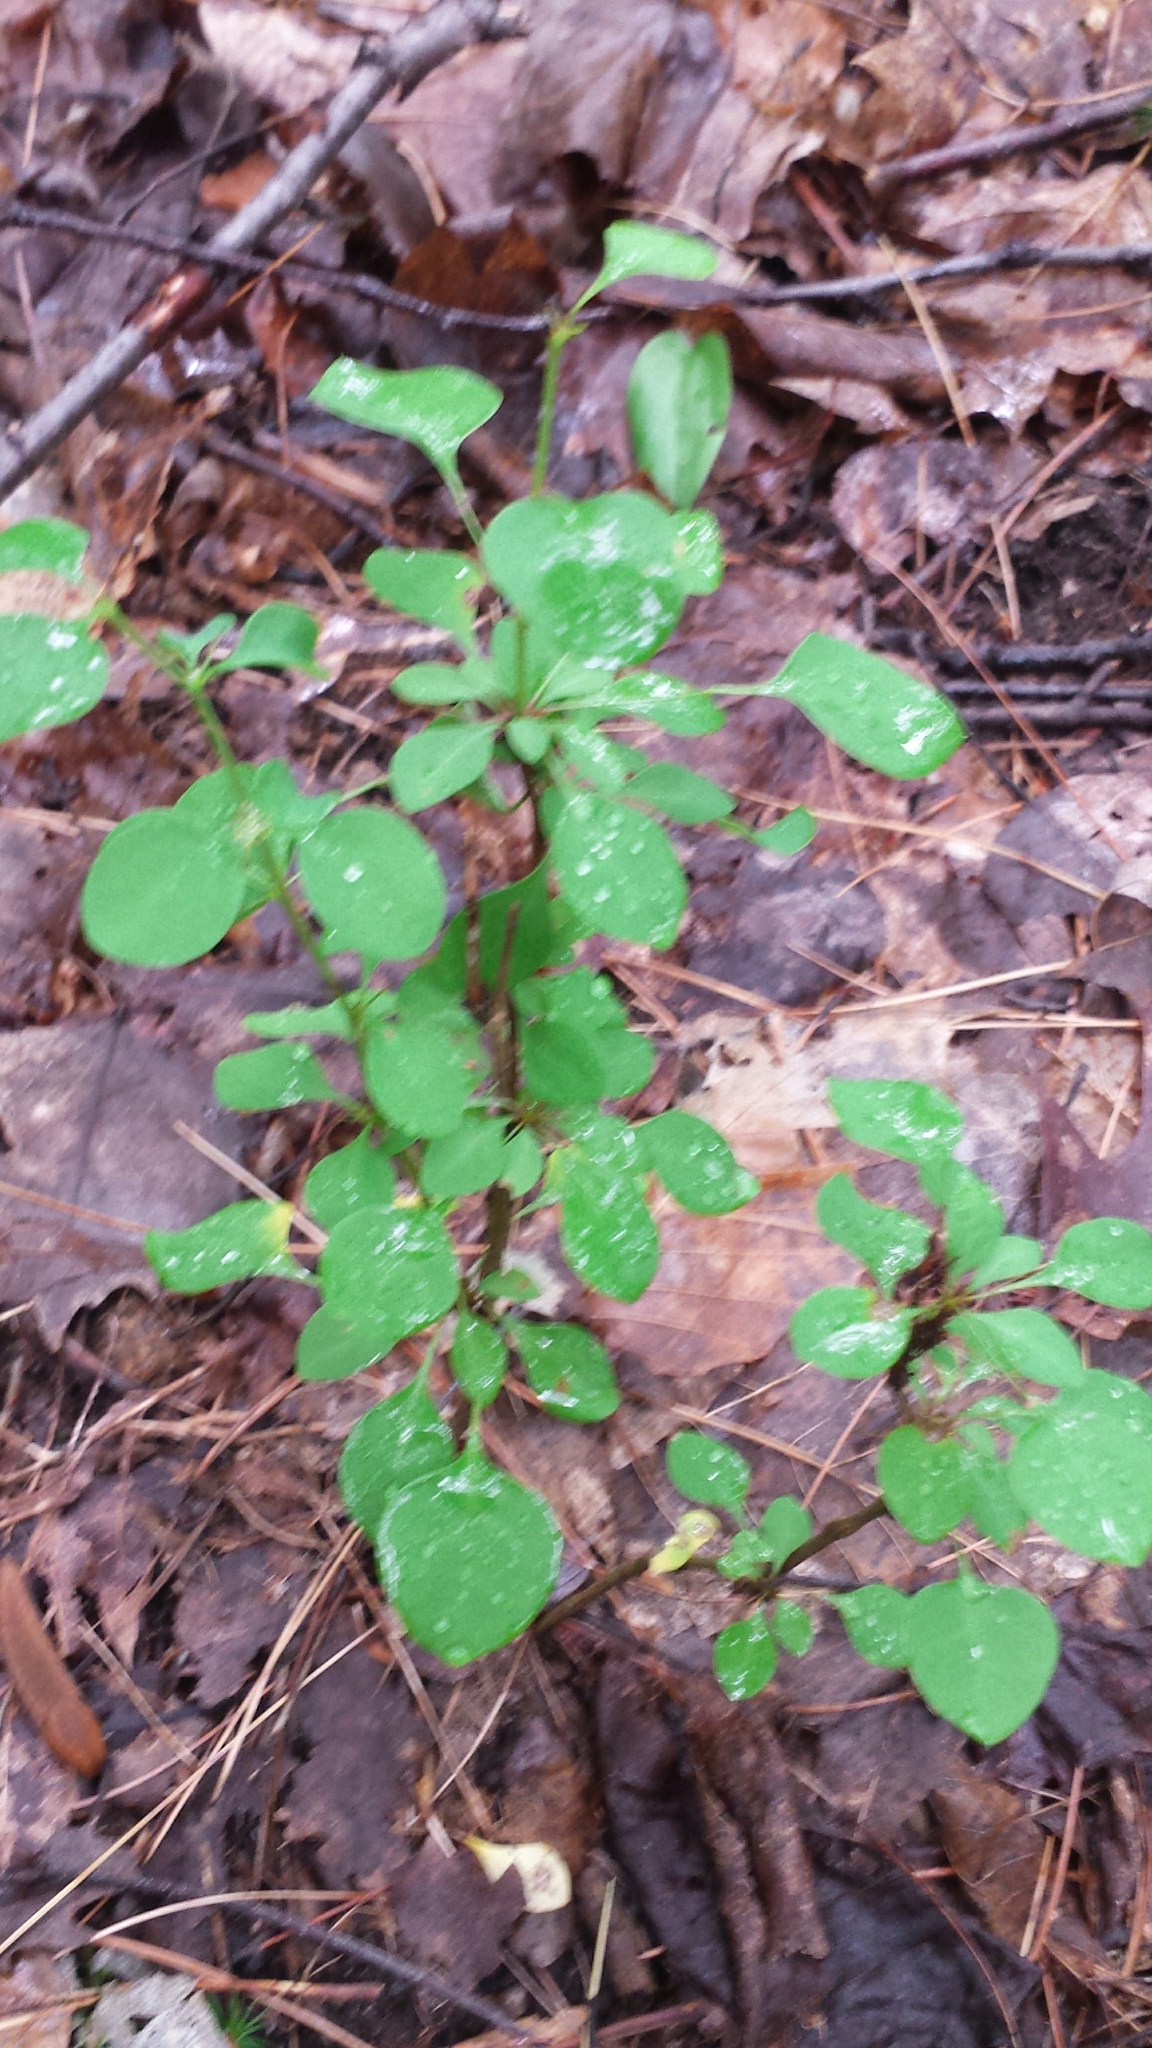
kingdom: Plantae
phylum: Tracheophyta
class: Magnoliopsida
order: Ranunculales
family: Berberidaceae
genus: Berberis
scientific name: Berberis thunbergii
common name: Japanese barberry
